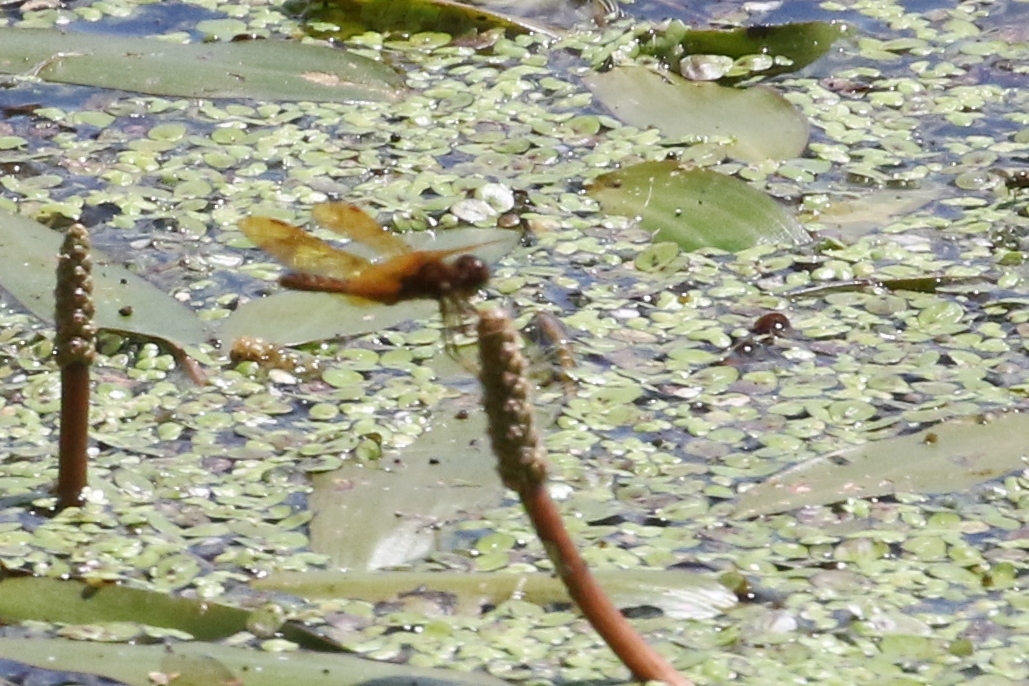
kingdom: Animalia
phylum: Arthropoda
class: Insecta
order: Odonata
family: Libellulidae
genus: Perithemis
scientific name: Perithemis tenera
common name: Eastern amberwing
